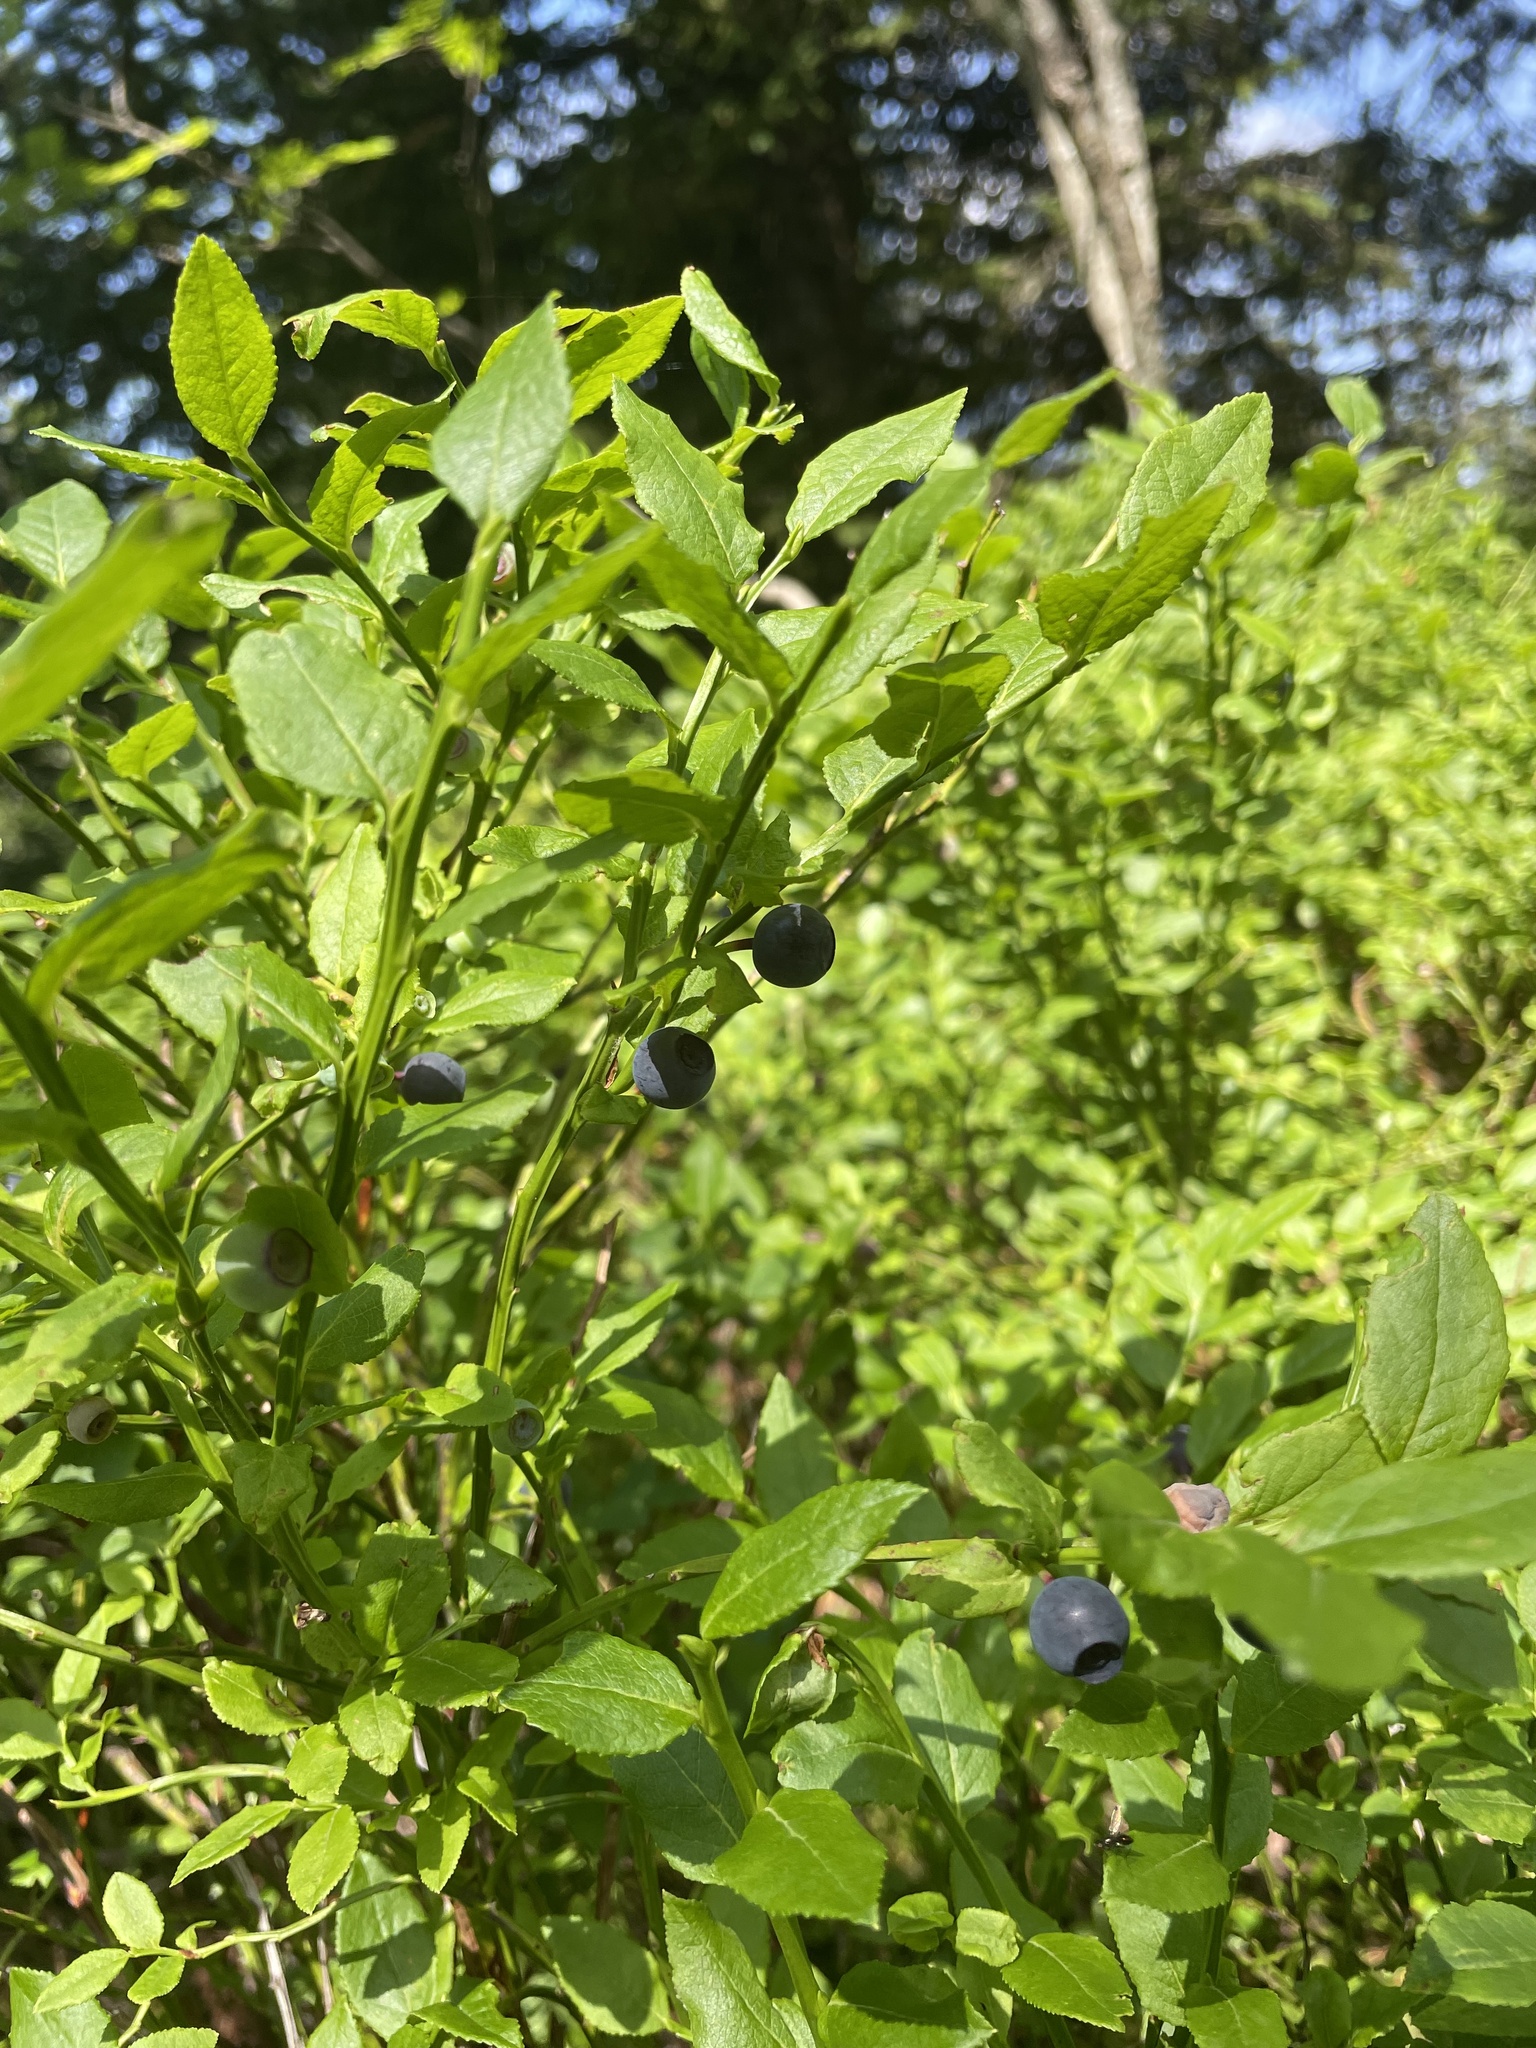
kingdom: Plantae
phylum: Tracheophyta
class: Magnoliopsida
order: Ericales
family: Ericaceae
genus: Vaccinium
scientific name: Vaccinium myrtillus
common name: Bilberry
